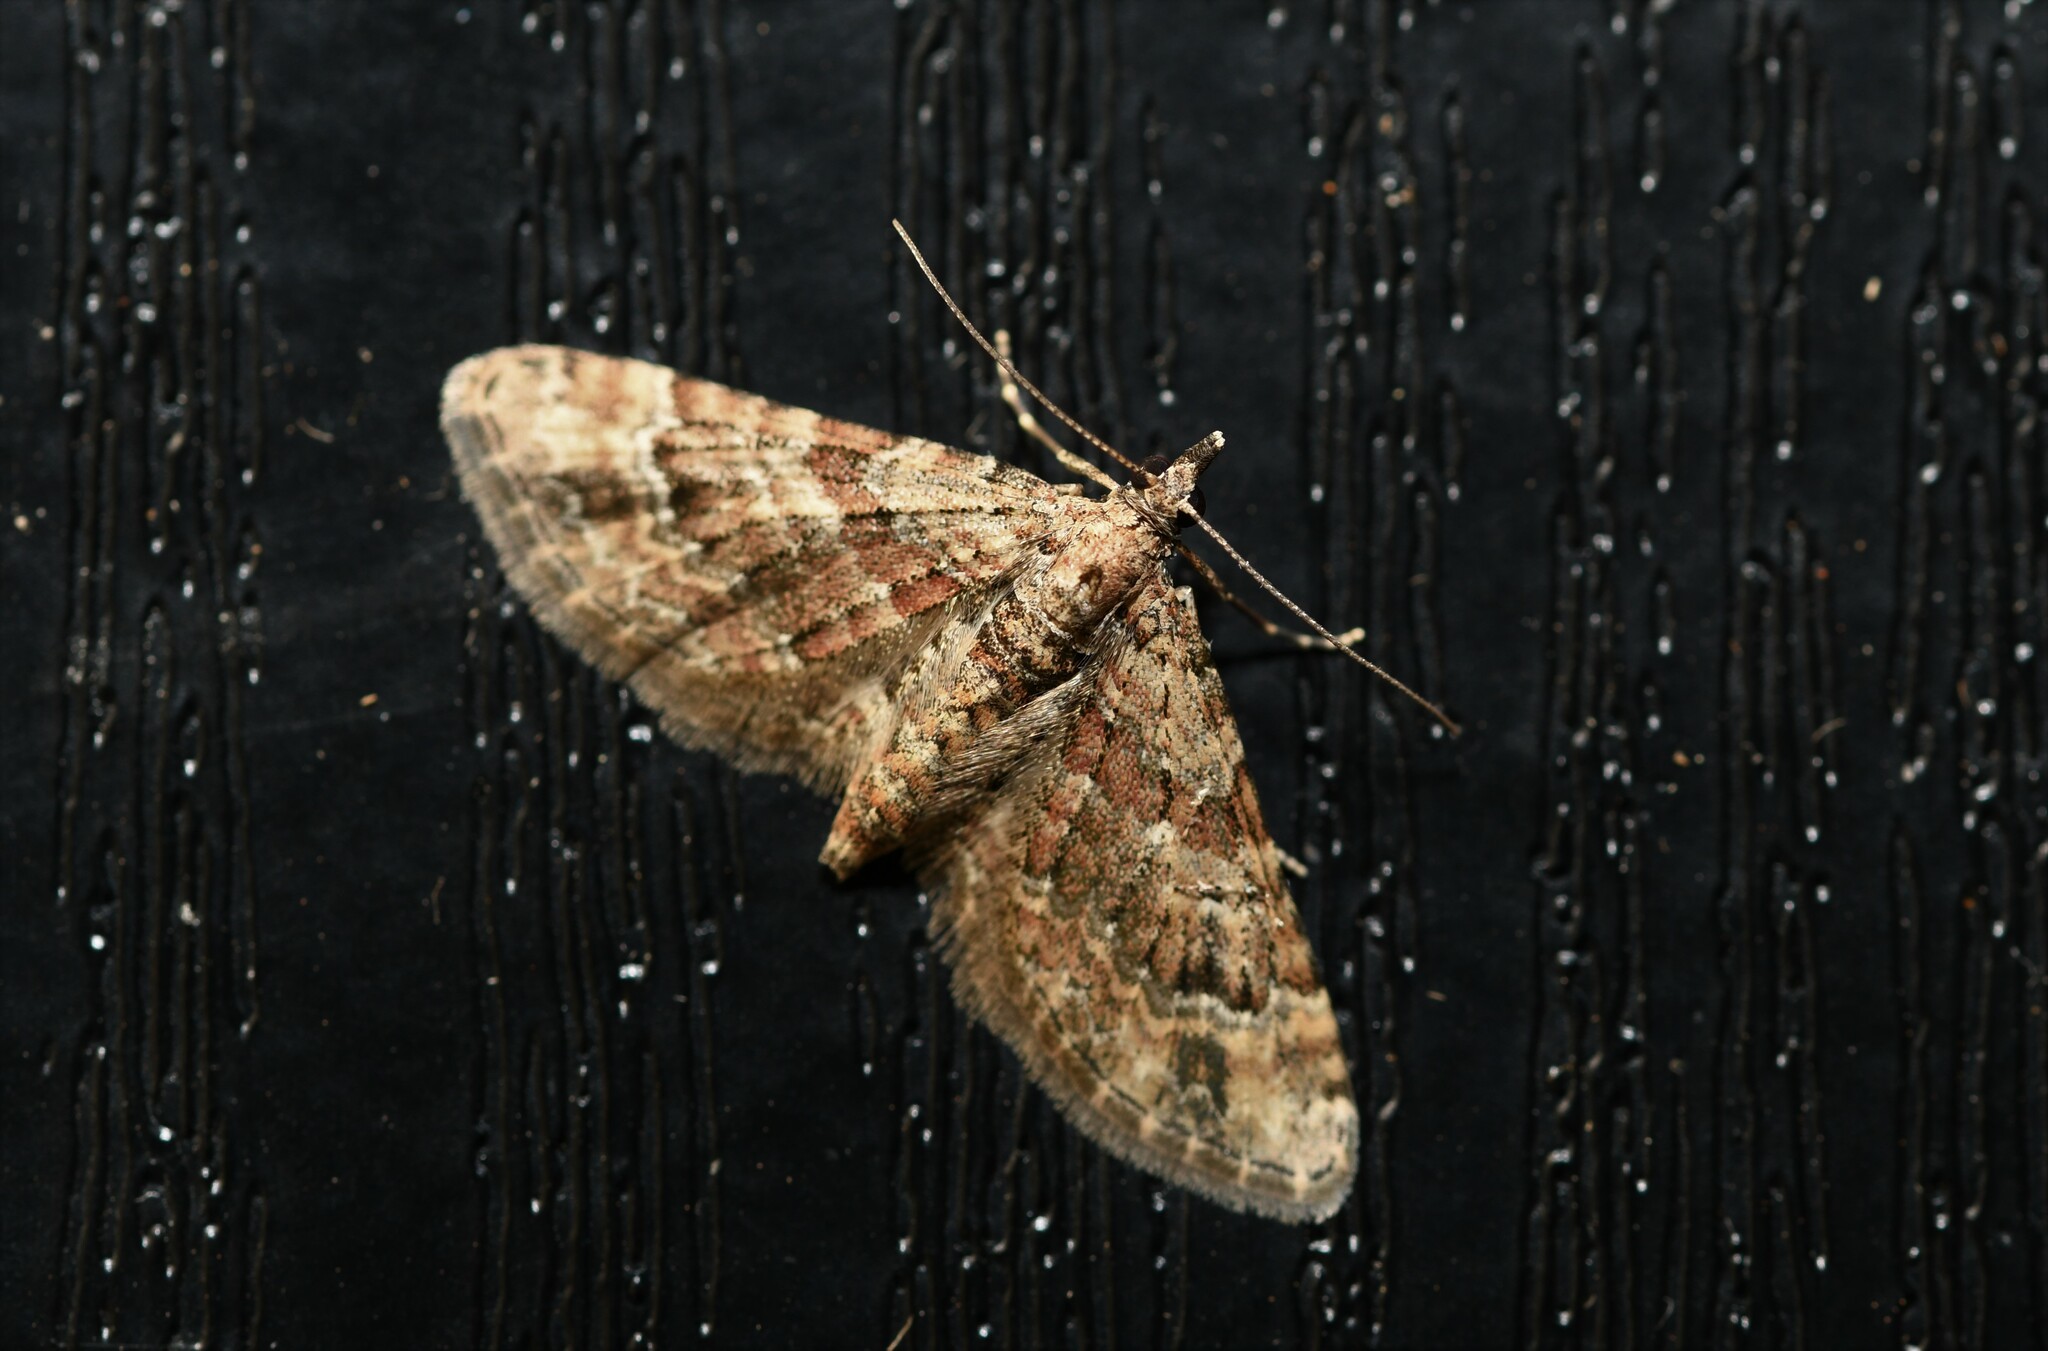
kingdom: Animalia
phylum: Arthropoda
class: Insecta
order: Lepidoptera
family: Geometridae
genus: Gymnoscelis
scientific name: Gymnoscelis rufifasciata
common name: Double-striped pug
